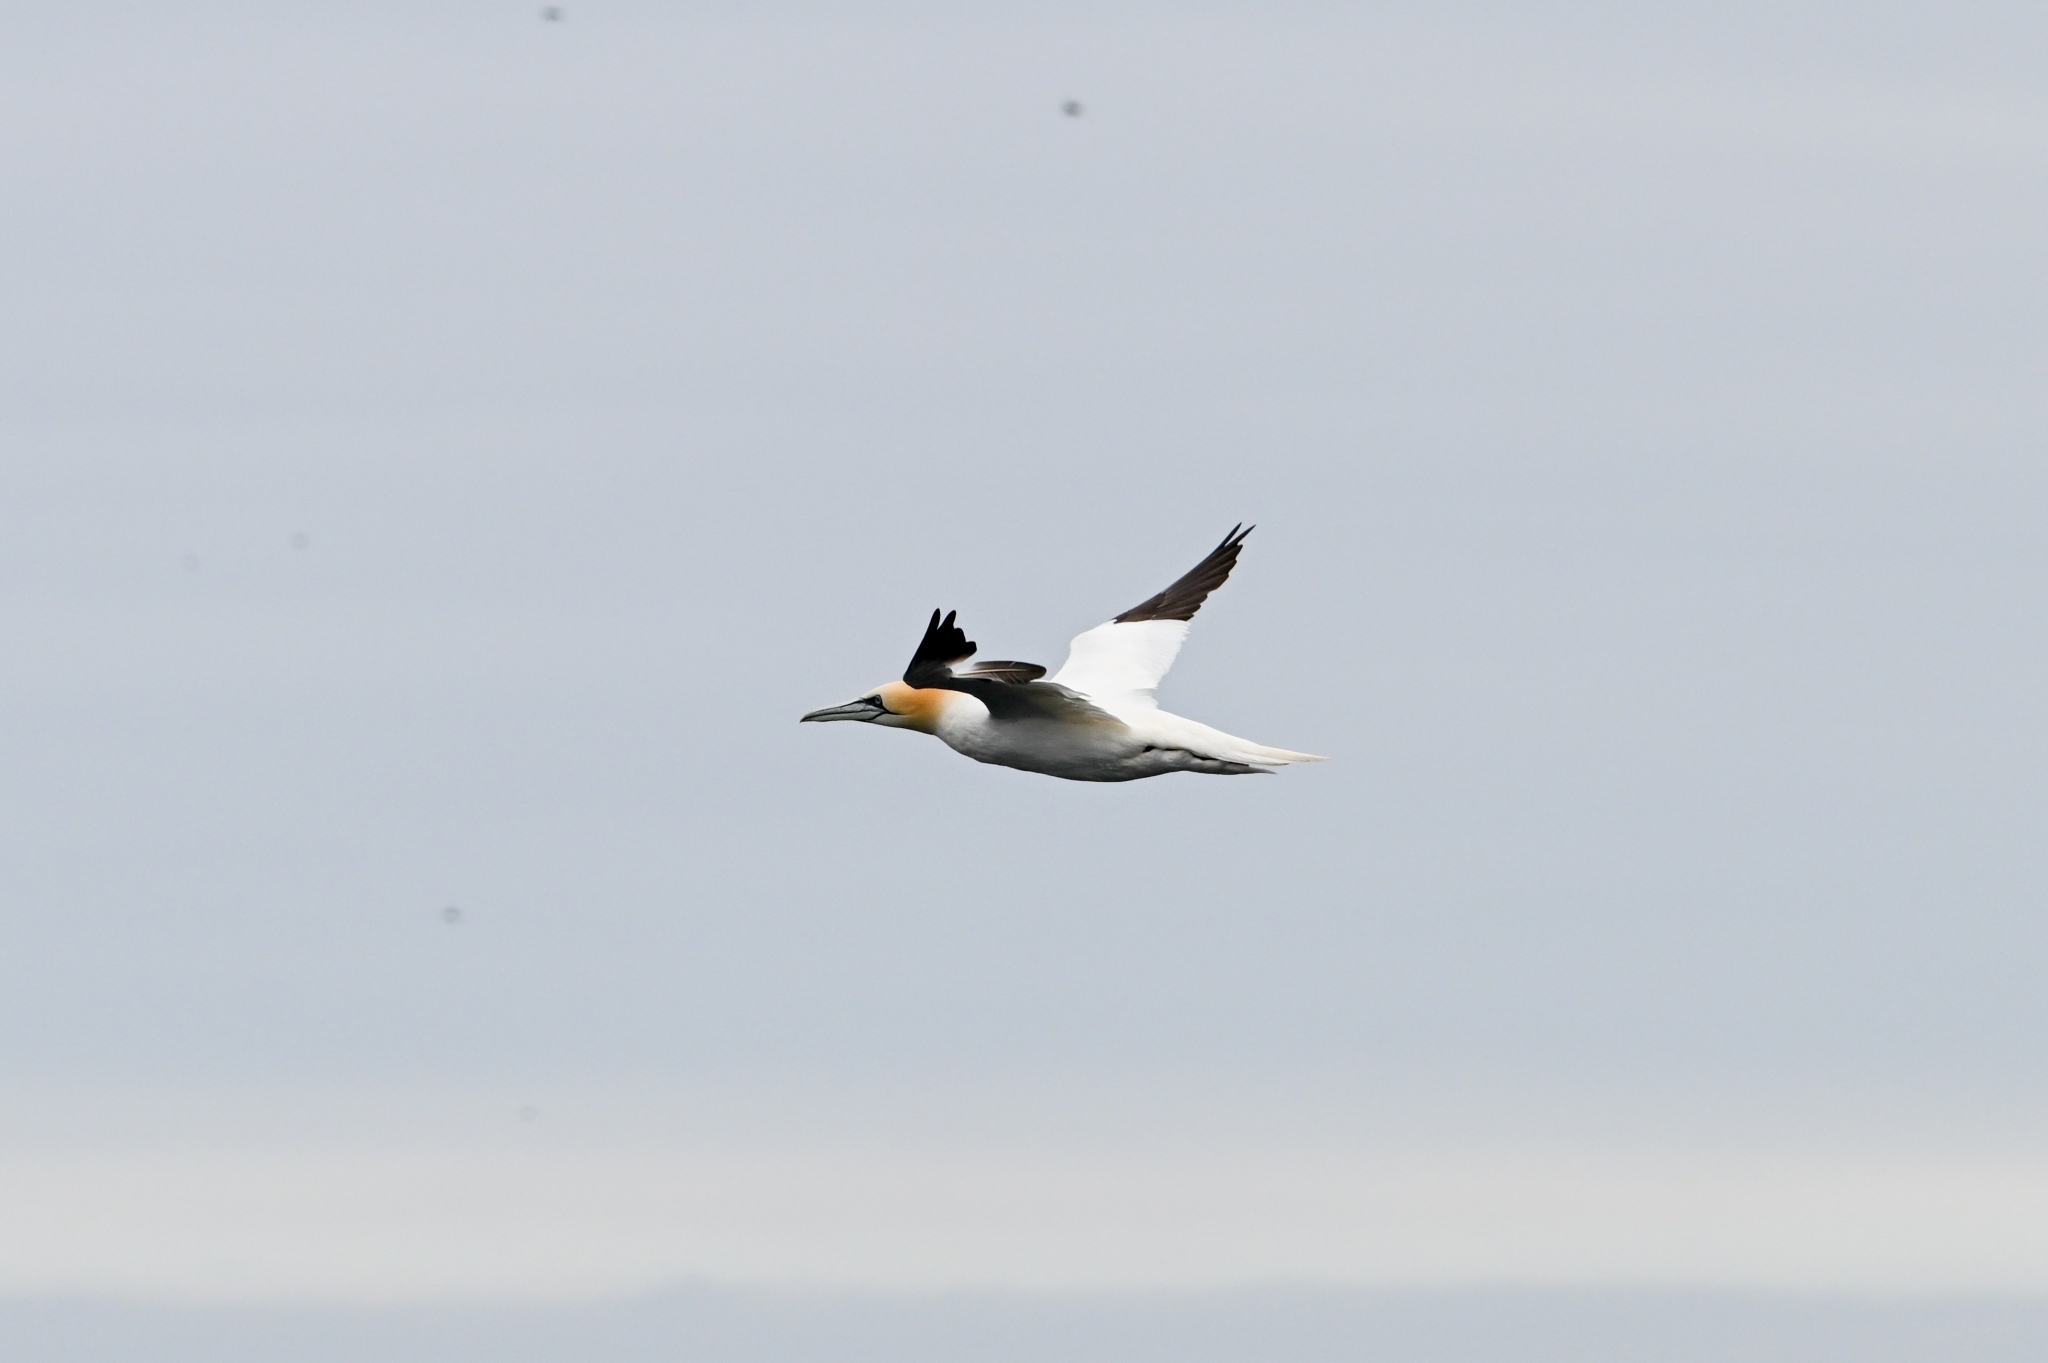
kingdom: Animalia
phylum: Chordata
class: Aves
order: Suliformes
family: Sulidae
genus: Morus
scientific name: Morus bassanus
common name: Northern gannet
